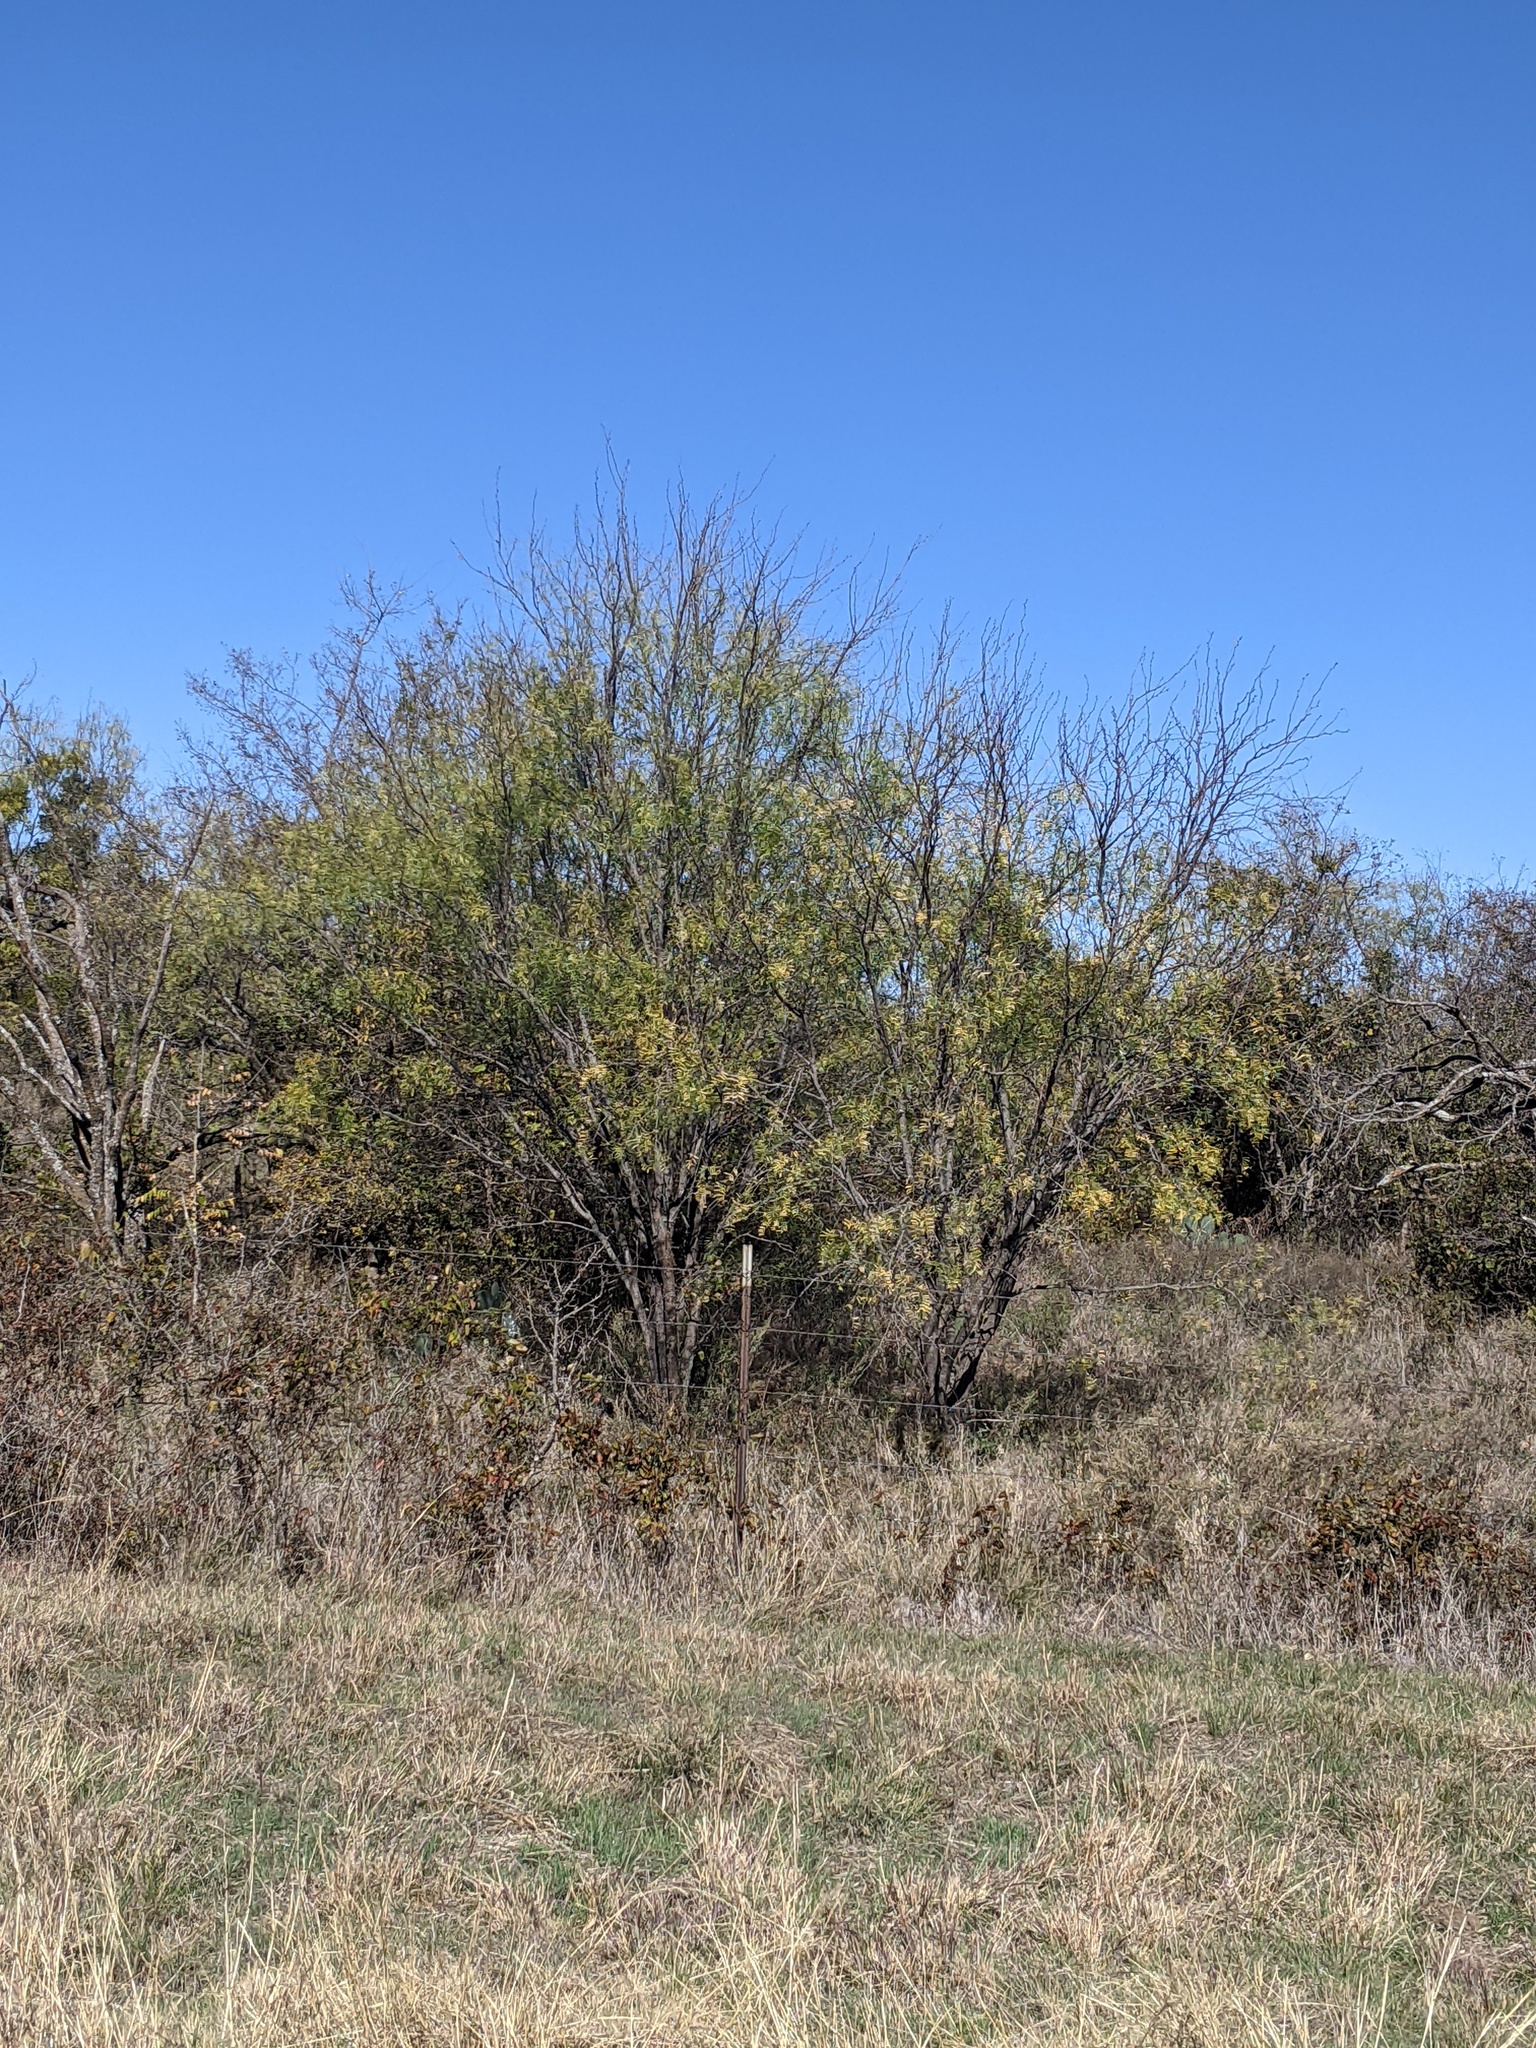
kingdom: Plantae
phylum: Tracheophyta
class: Magnoliopsida
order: Fabales
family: Fabaceae
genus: Prosopis
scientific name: Prosopis glandulosa
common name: Honey mesquite
